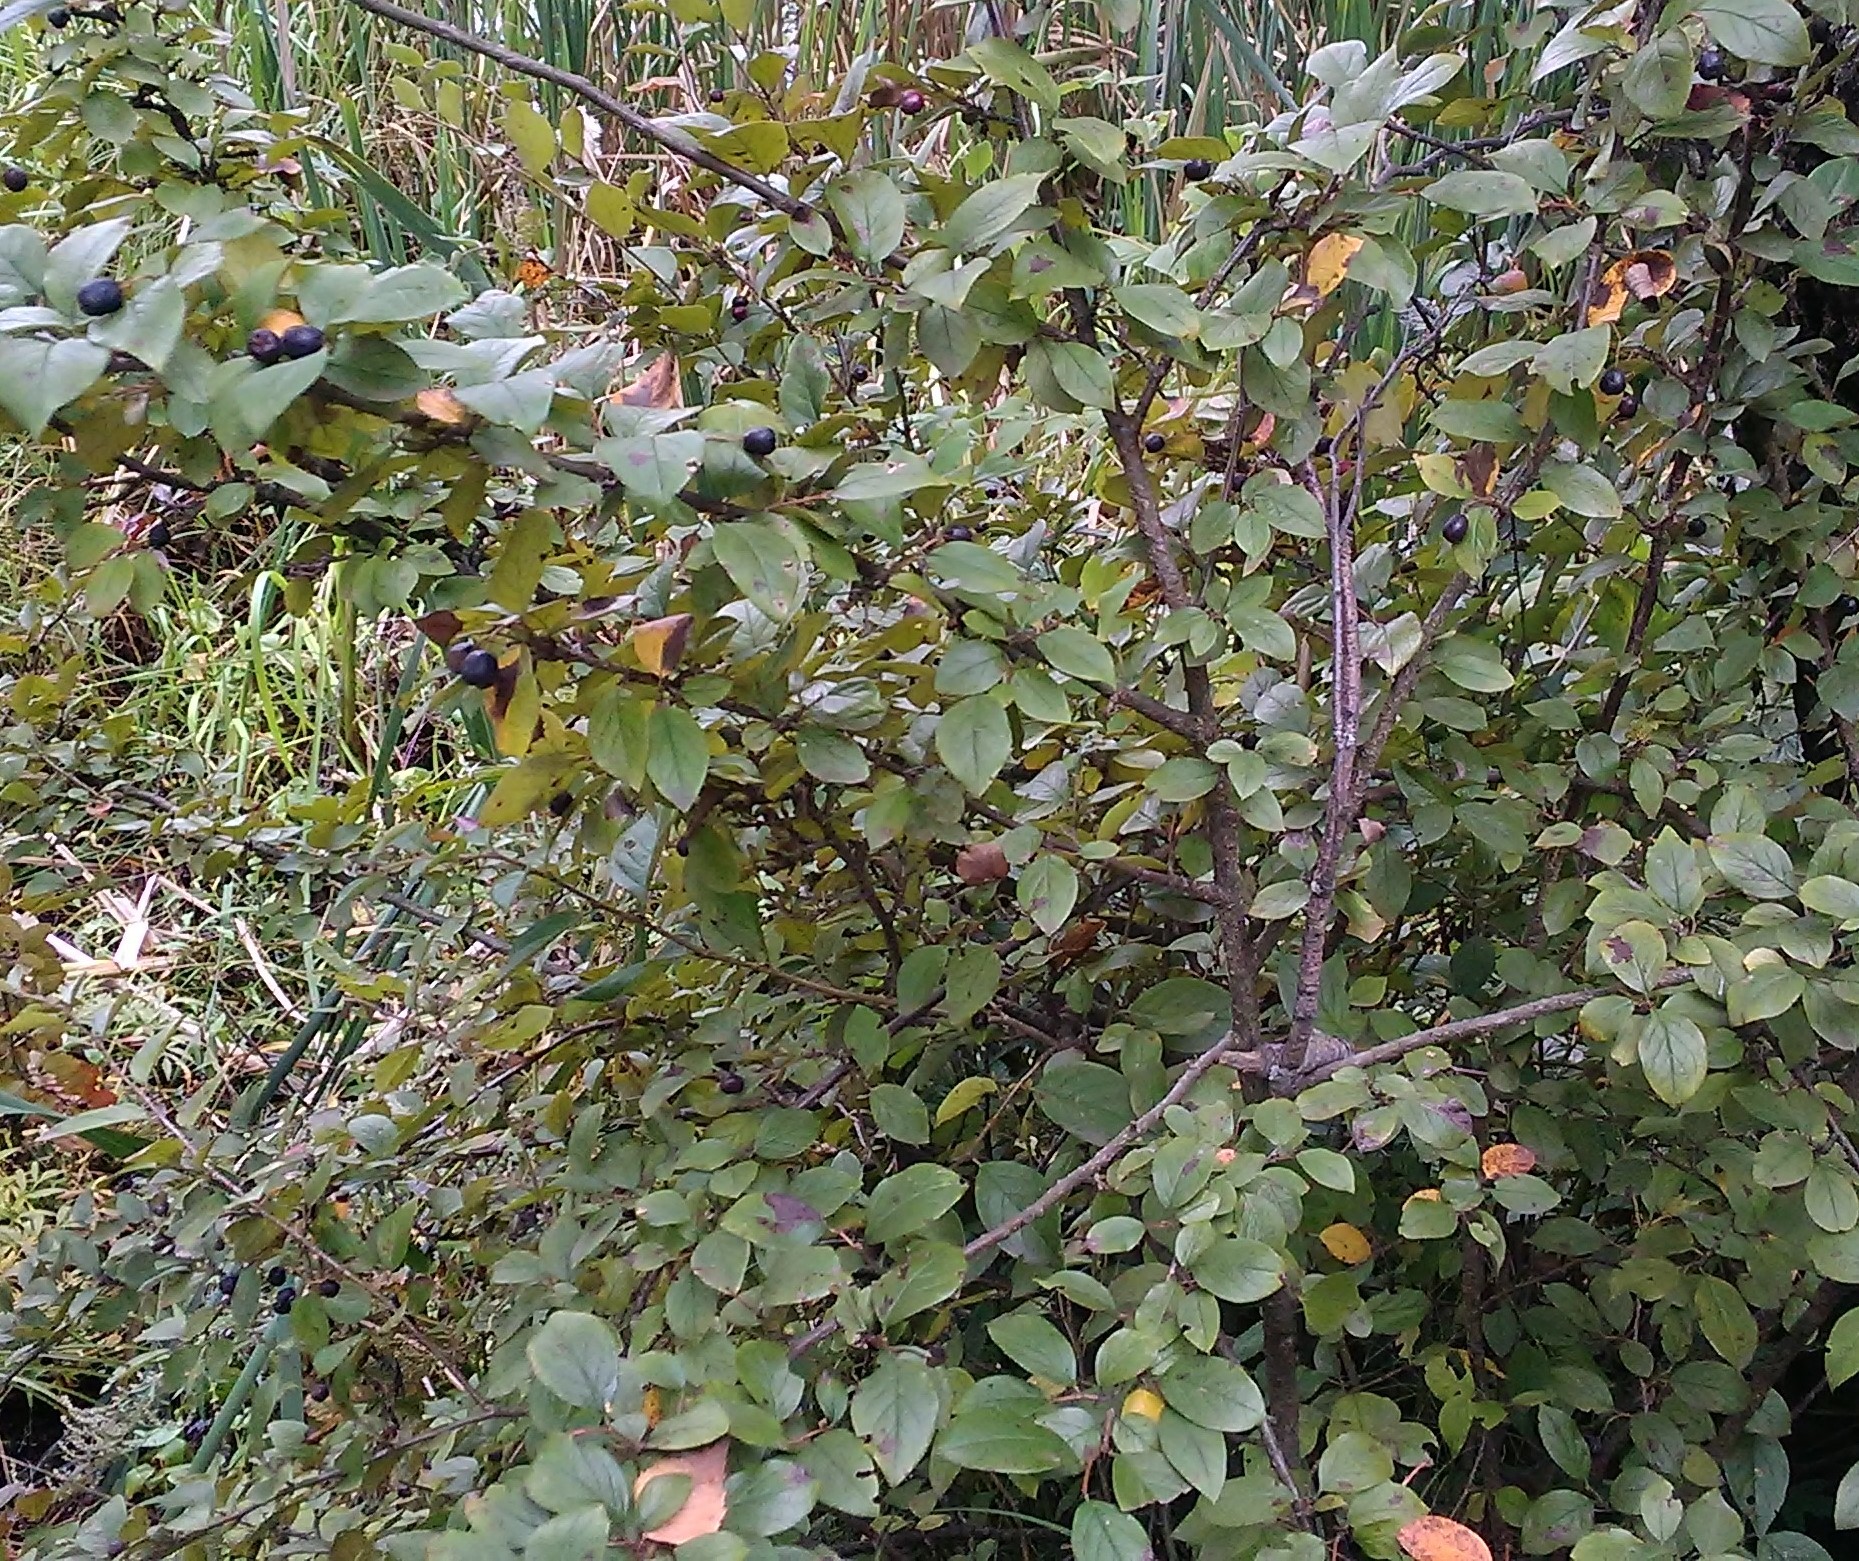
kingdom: Plantae
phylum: Tracheophyta
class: Magnoliopsida
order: Rosales
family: Rosaceae
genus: Cotoneaster
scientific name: Cotoneaster acutifolius
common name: Peking cotoneaster
